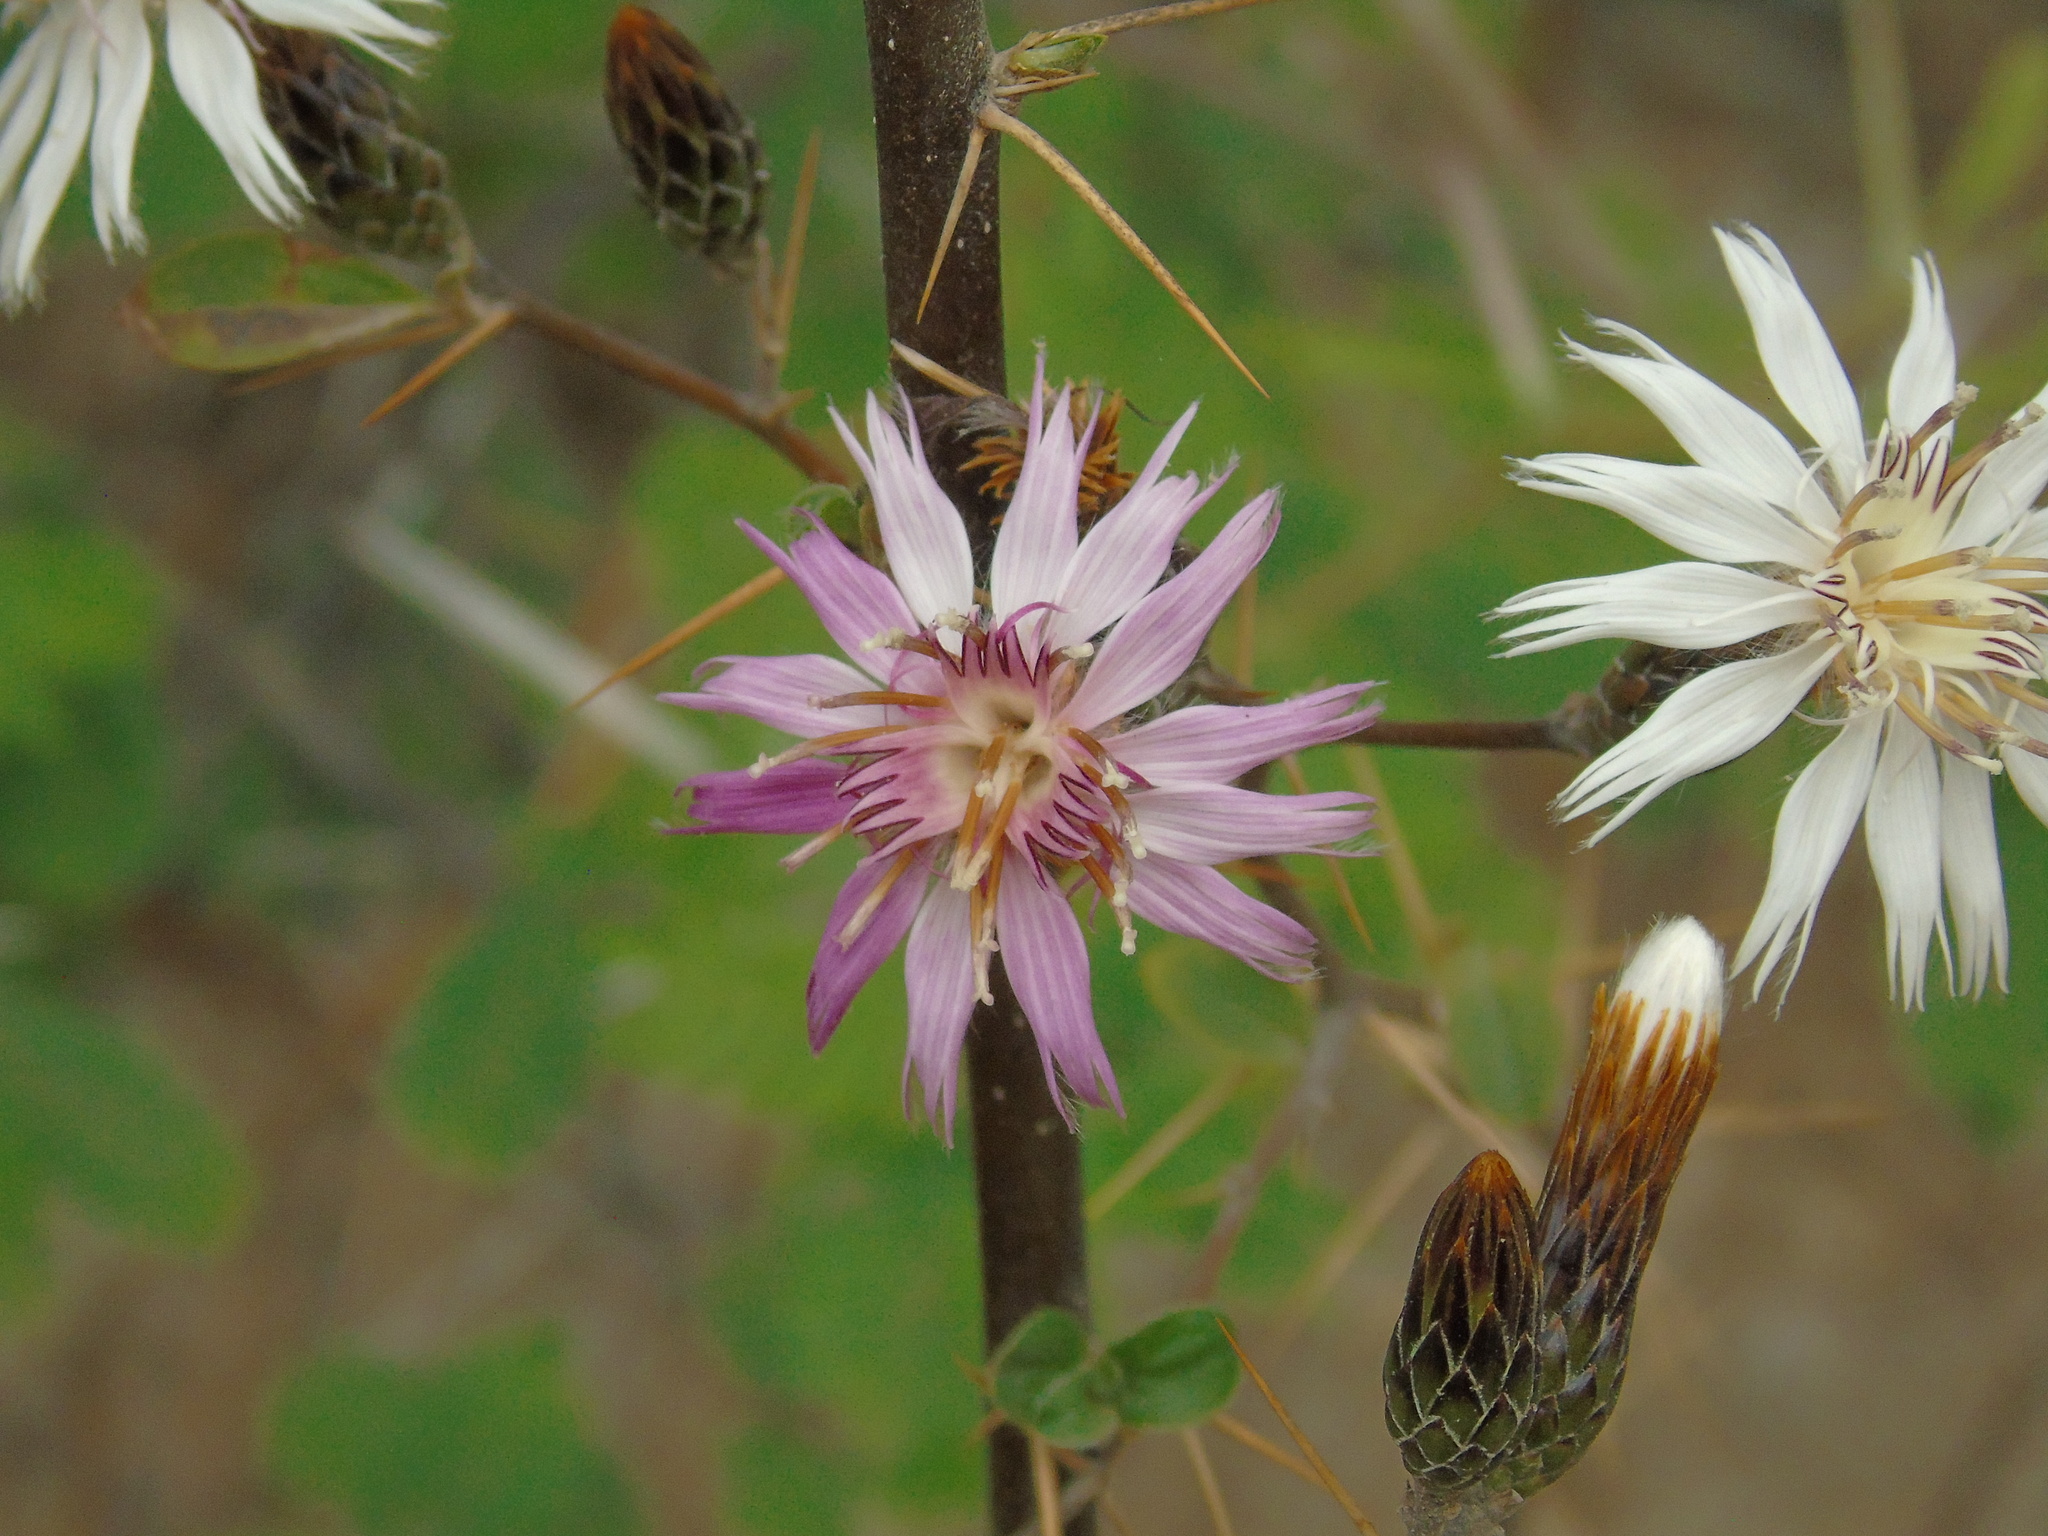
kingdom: Plantae
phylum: Tracheophyta
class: Magnoliopsida
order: Asterales
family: Asteraceae
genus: Barnadesia
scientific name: Barnadesia odorata
